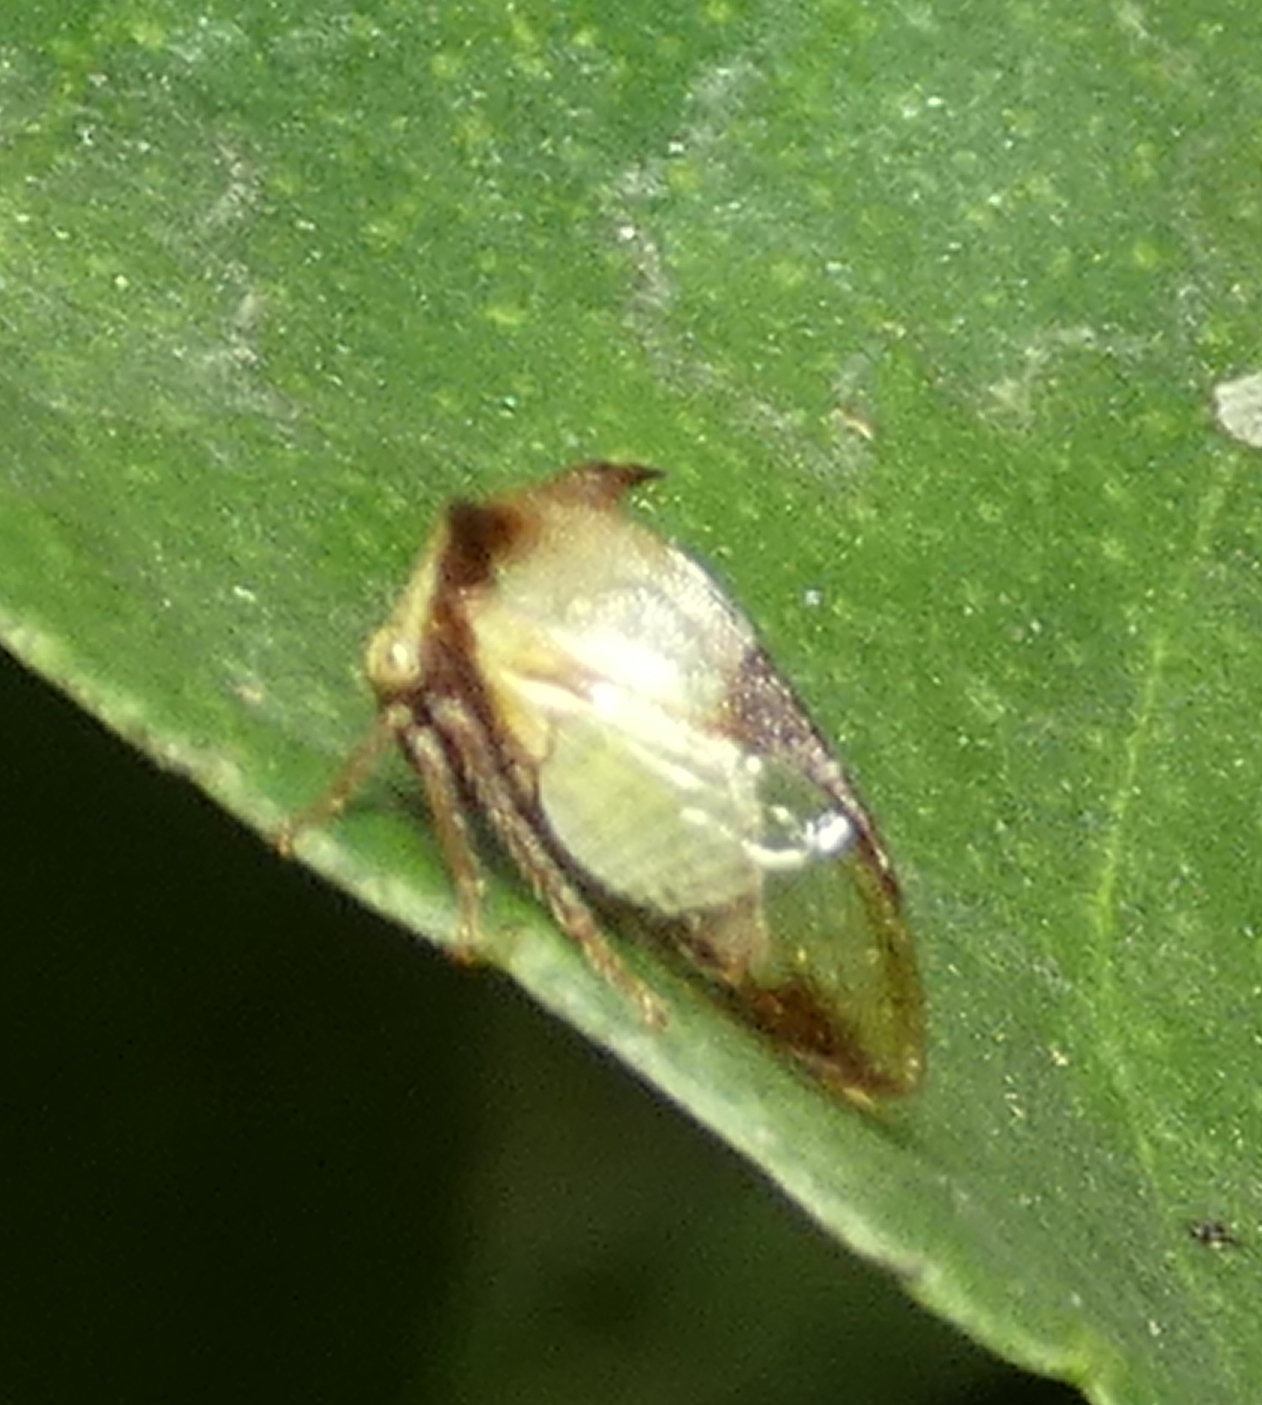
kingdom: Animalia
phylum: Arthropoda
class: Insecta
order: Hemiptera
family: Membracidae
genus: Ceresa
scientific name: Ceresa ustulata
